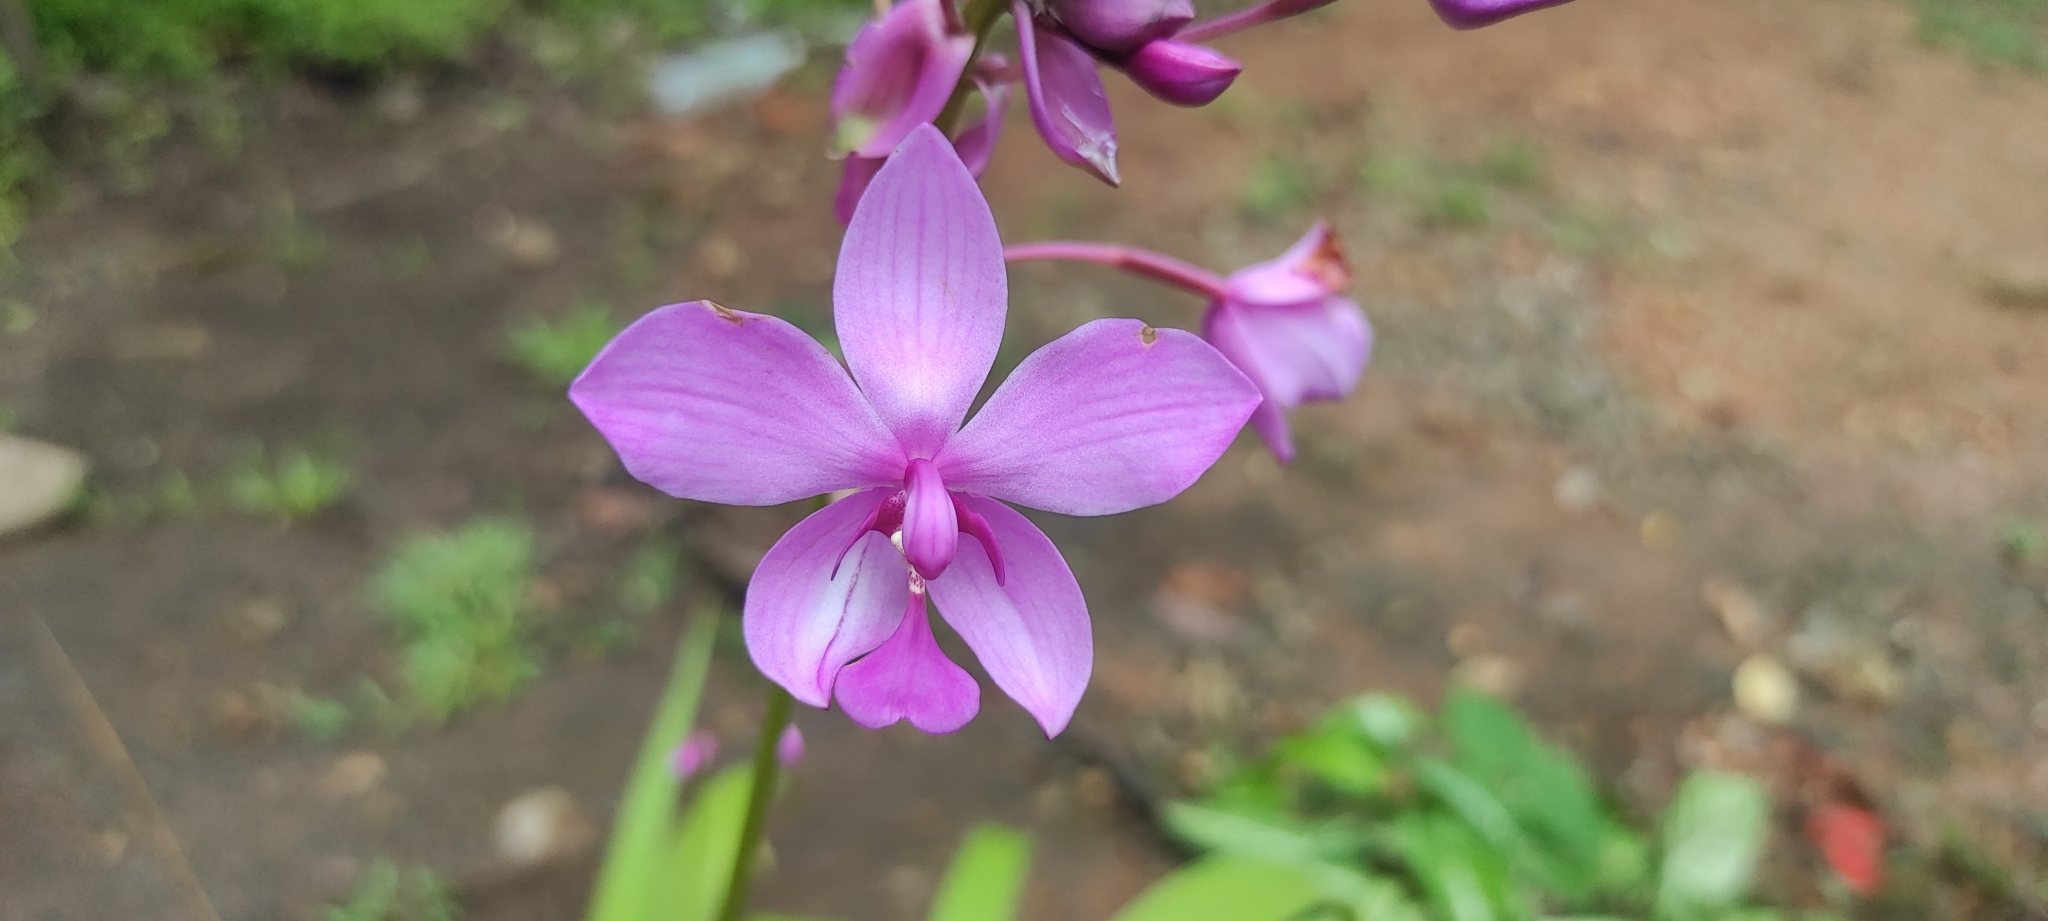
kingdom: Plantae
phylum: Tracheophyta
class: Liliopsida
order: Asparagales
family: Orchidaceae
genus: Spathoglottis
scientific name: Spathoglottis plicata
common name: Philippine ground orchid
